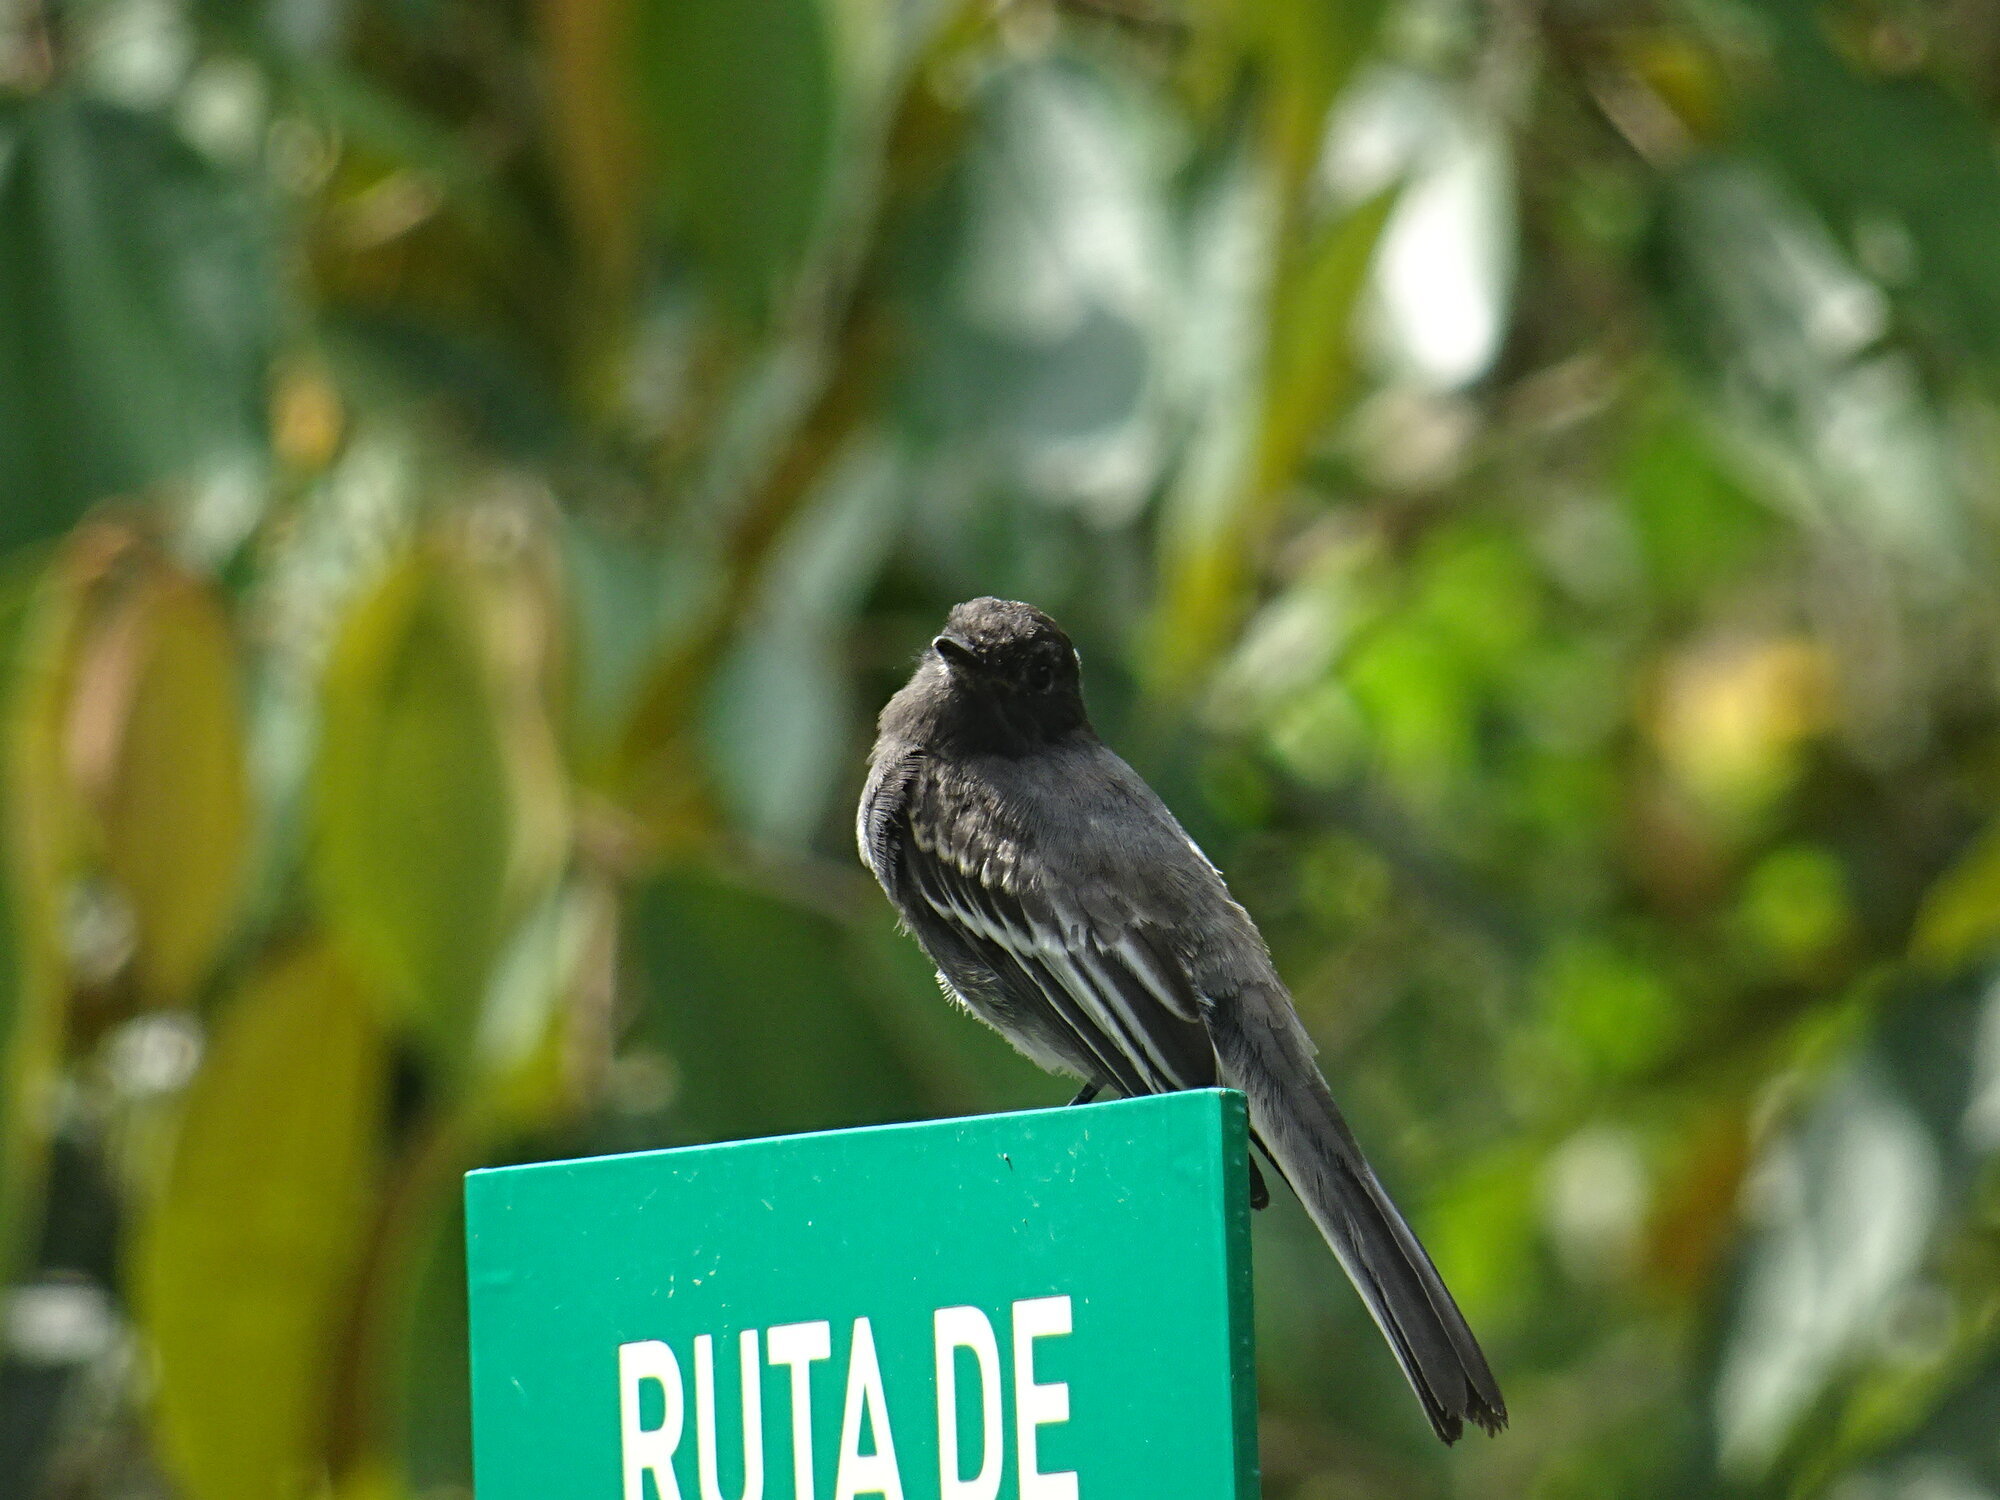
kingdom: Animalia
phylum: Chordata
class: Aves
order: Passeriformes
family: Tyrannidae
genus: Sayornis
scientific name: Sayornis nigricans
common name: Black phoebe
